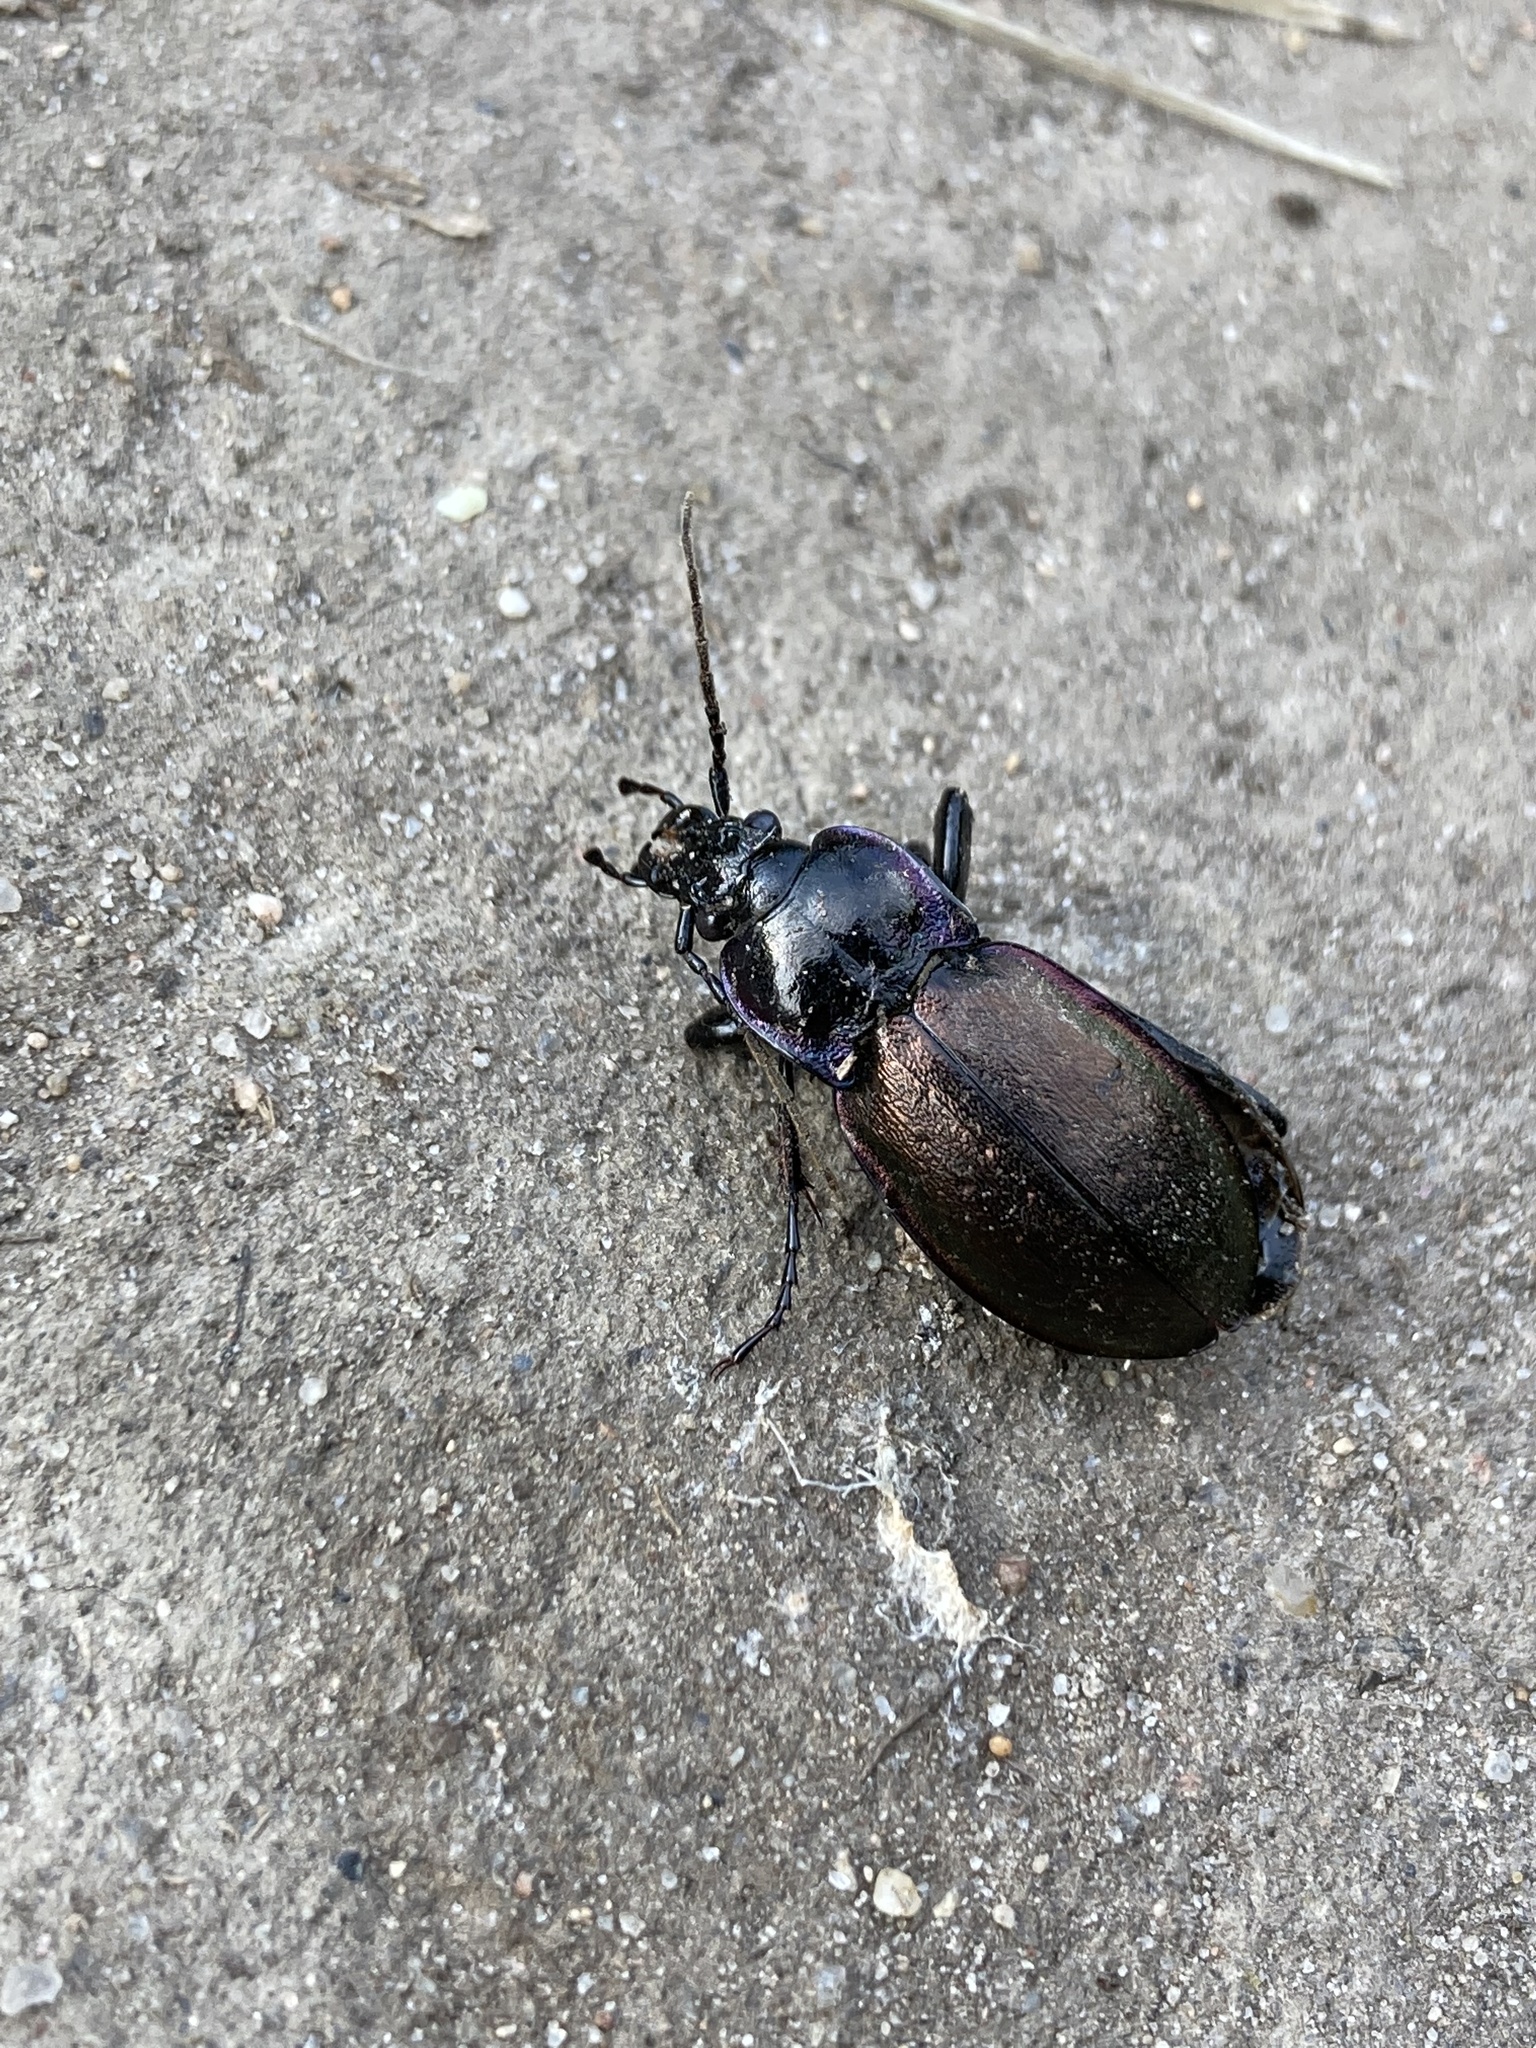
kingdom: Animalia
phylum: Arthropoda
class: Insecta
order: Coleoptera
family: Carabidae
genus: Carabus
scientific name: Carabus nemoralis
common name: European ground beetle
